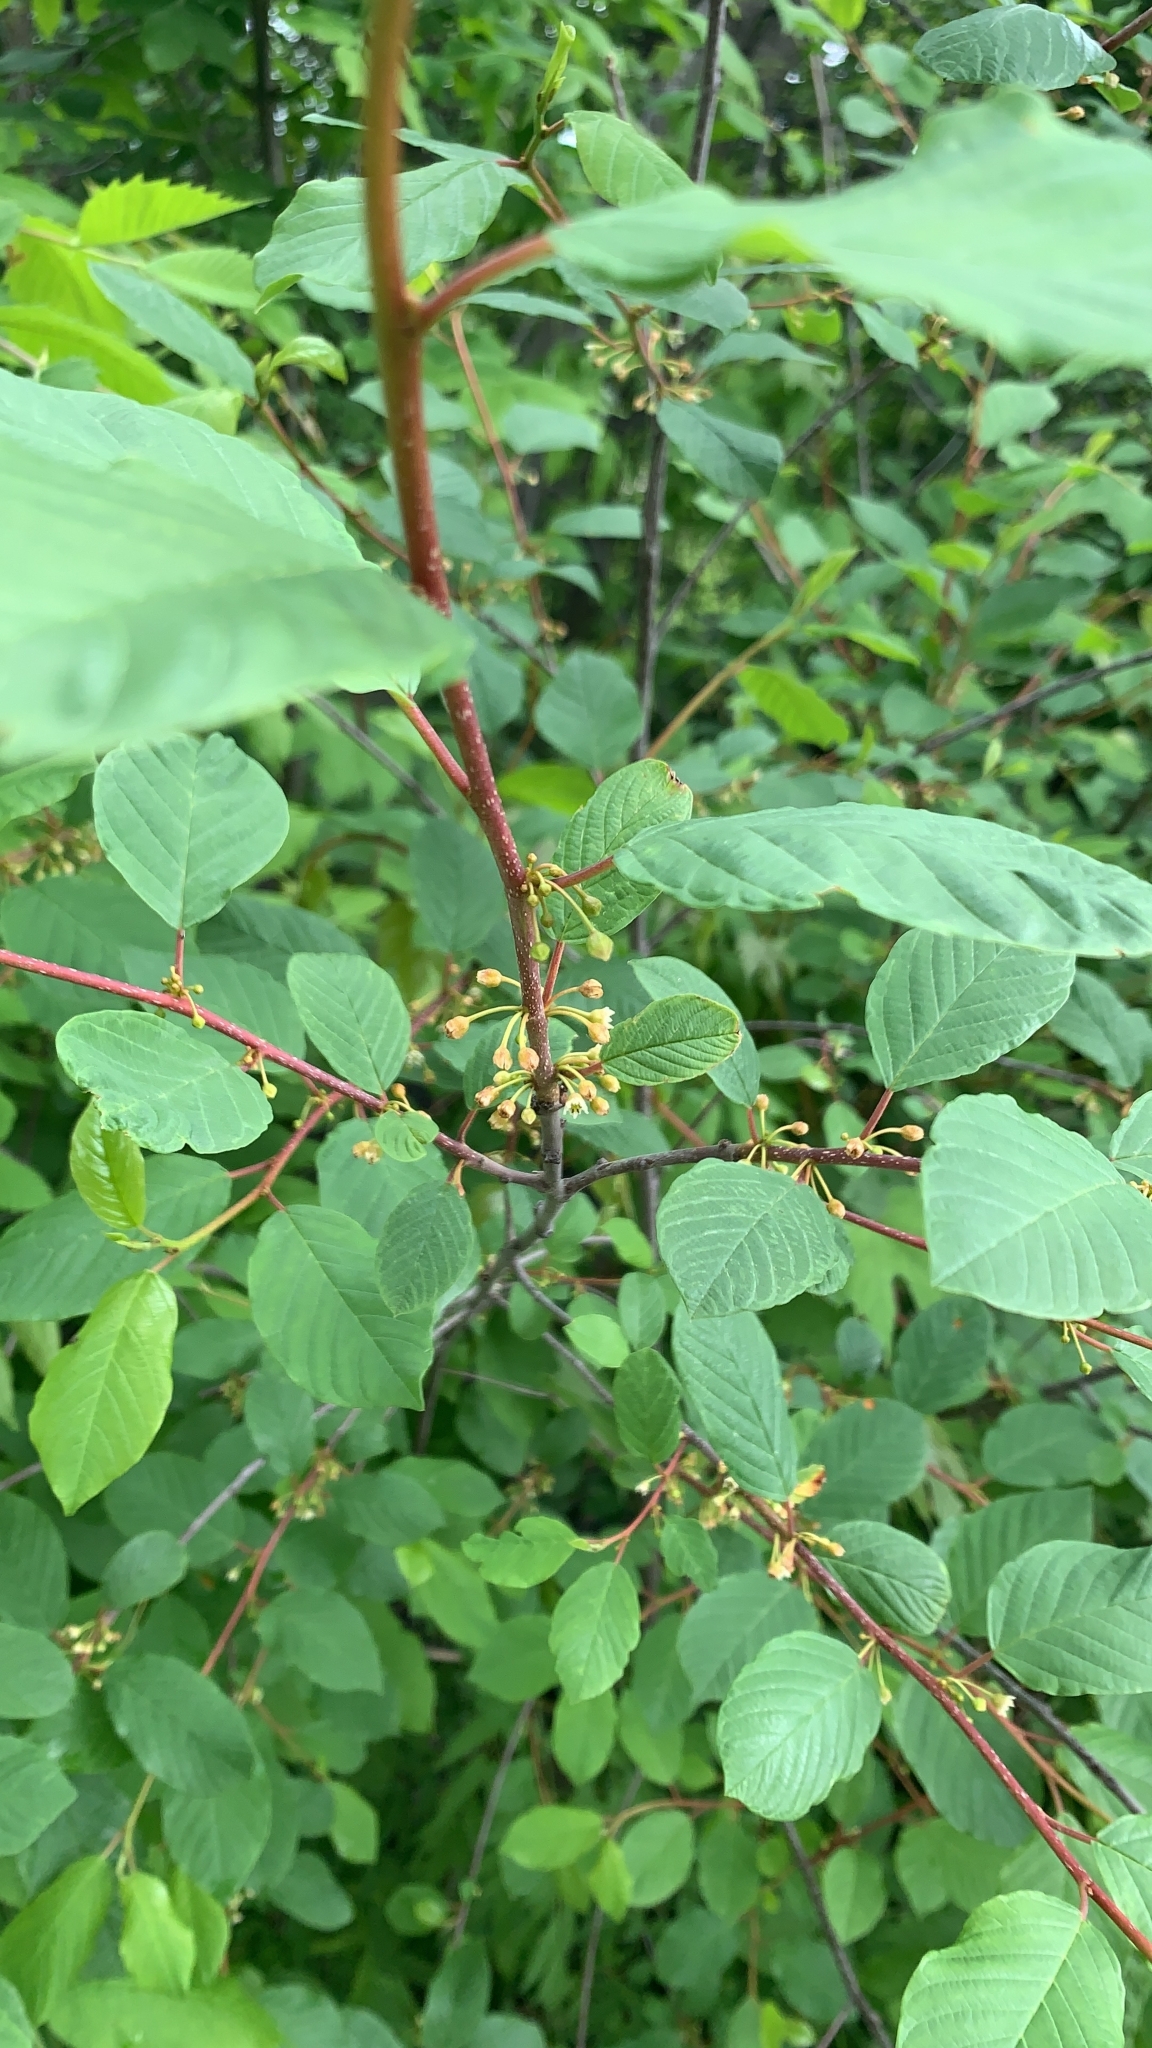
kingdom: Plantae
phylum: Tracheophyta
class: Magnoliopsida
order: Rosales
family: Rhamnaceae
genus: Frangula
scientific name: Frangula alnus
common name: Alder buckthorn
